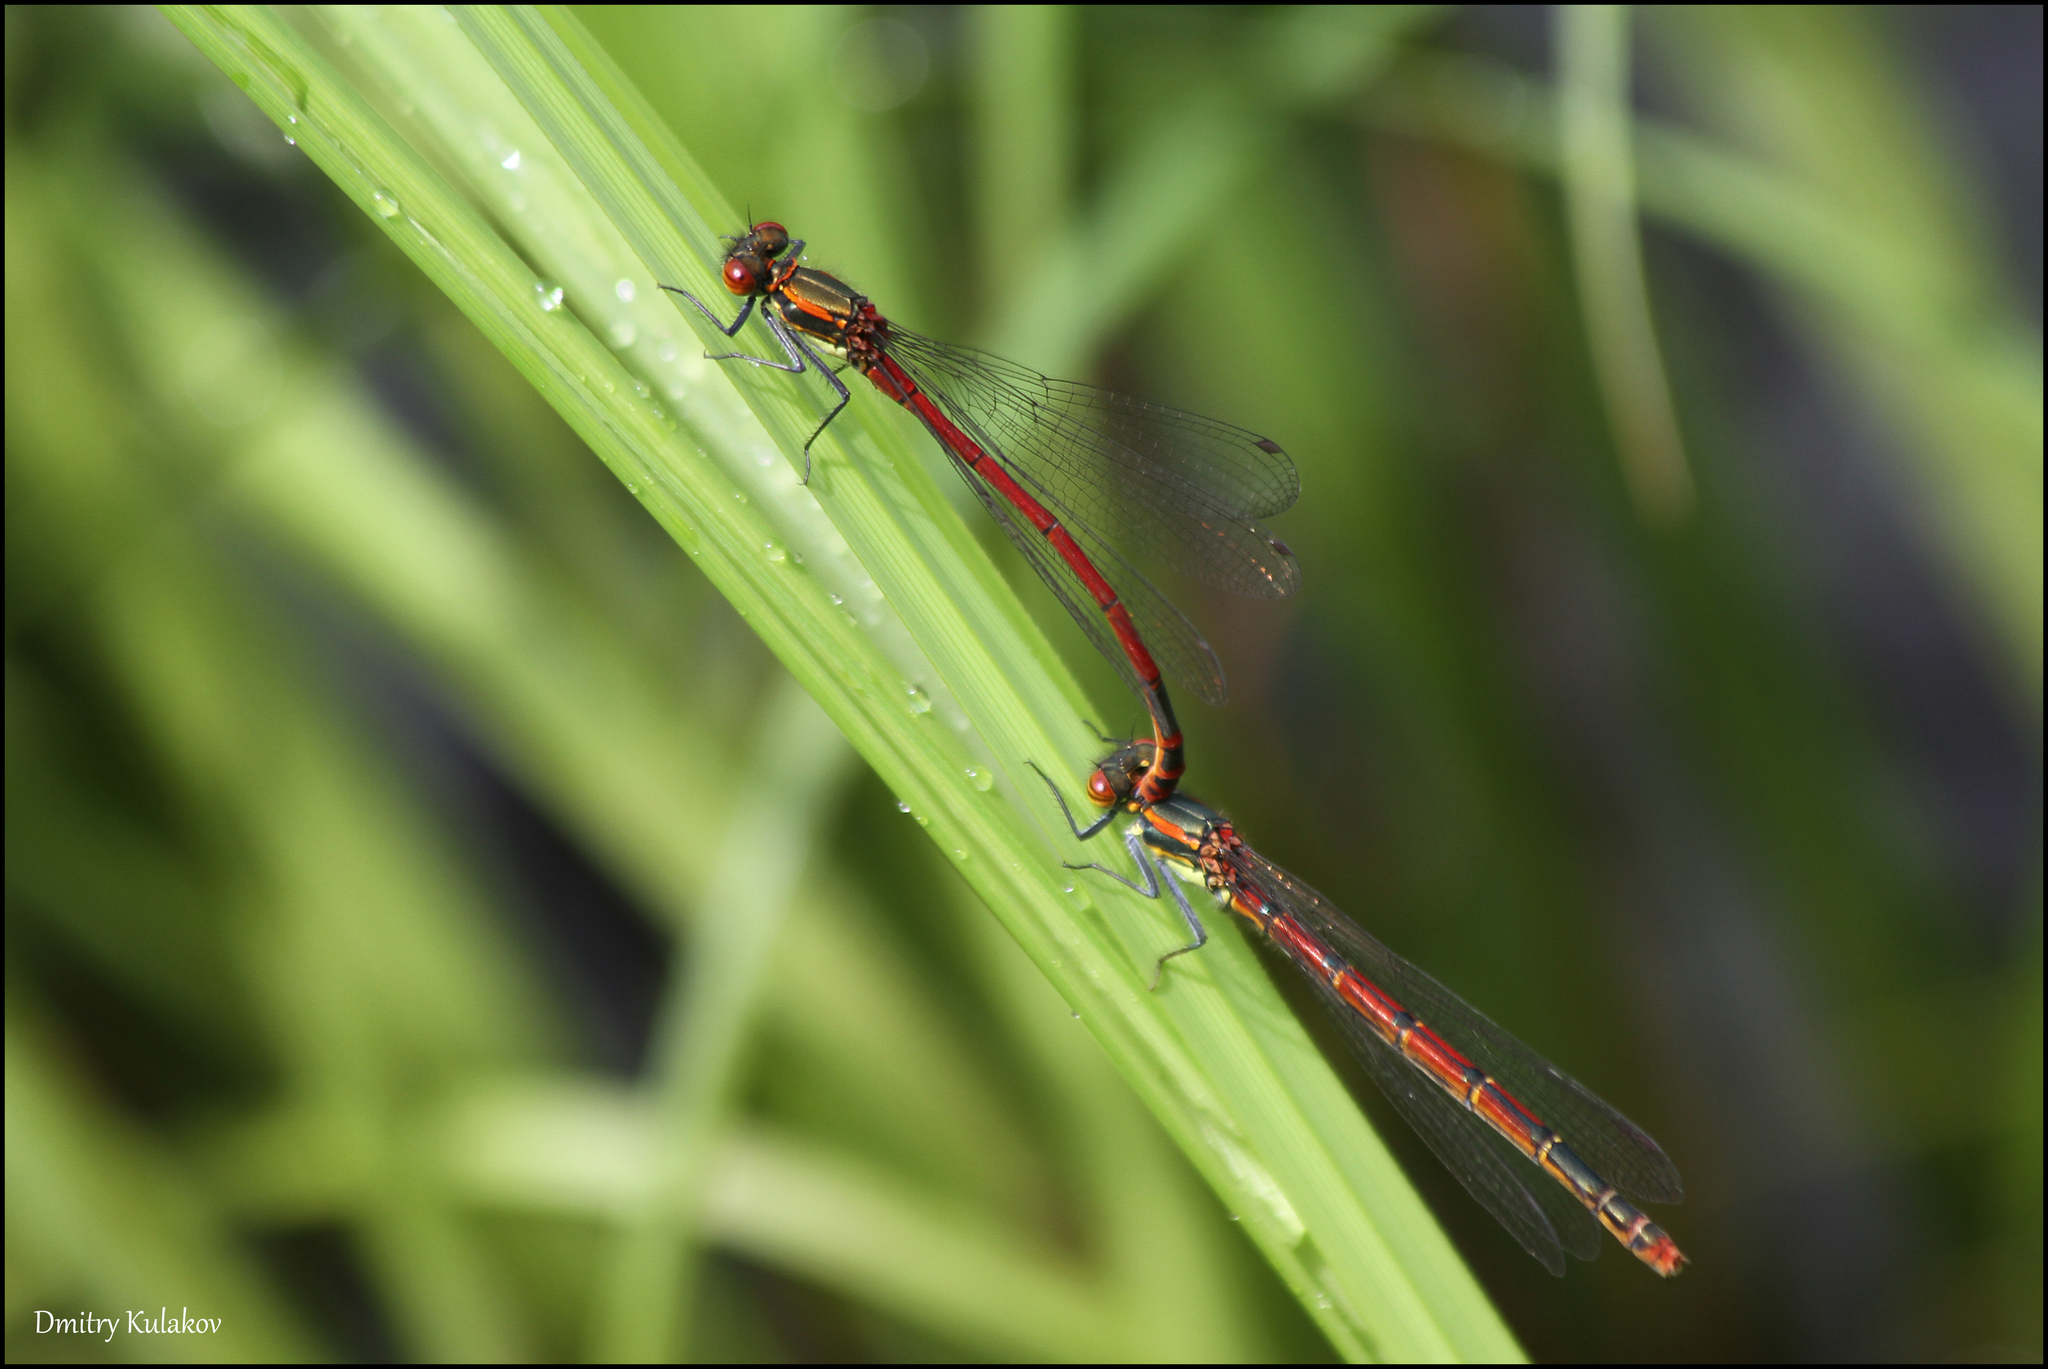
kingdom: Animalia
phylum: Arthropoda
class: Insecta
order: Odonata
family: Coenagrionidae
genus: Pyrrhosoma
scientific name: Pyrrhosoma nymphula
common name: Large red damsel
